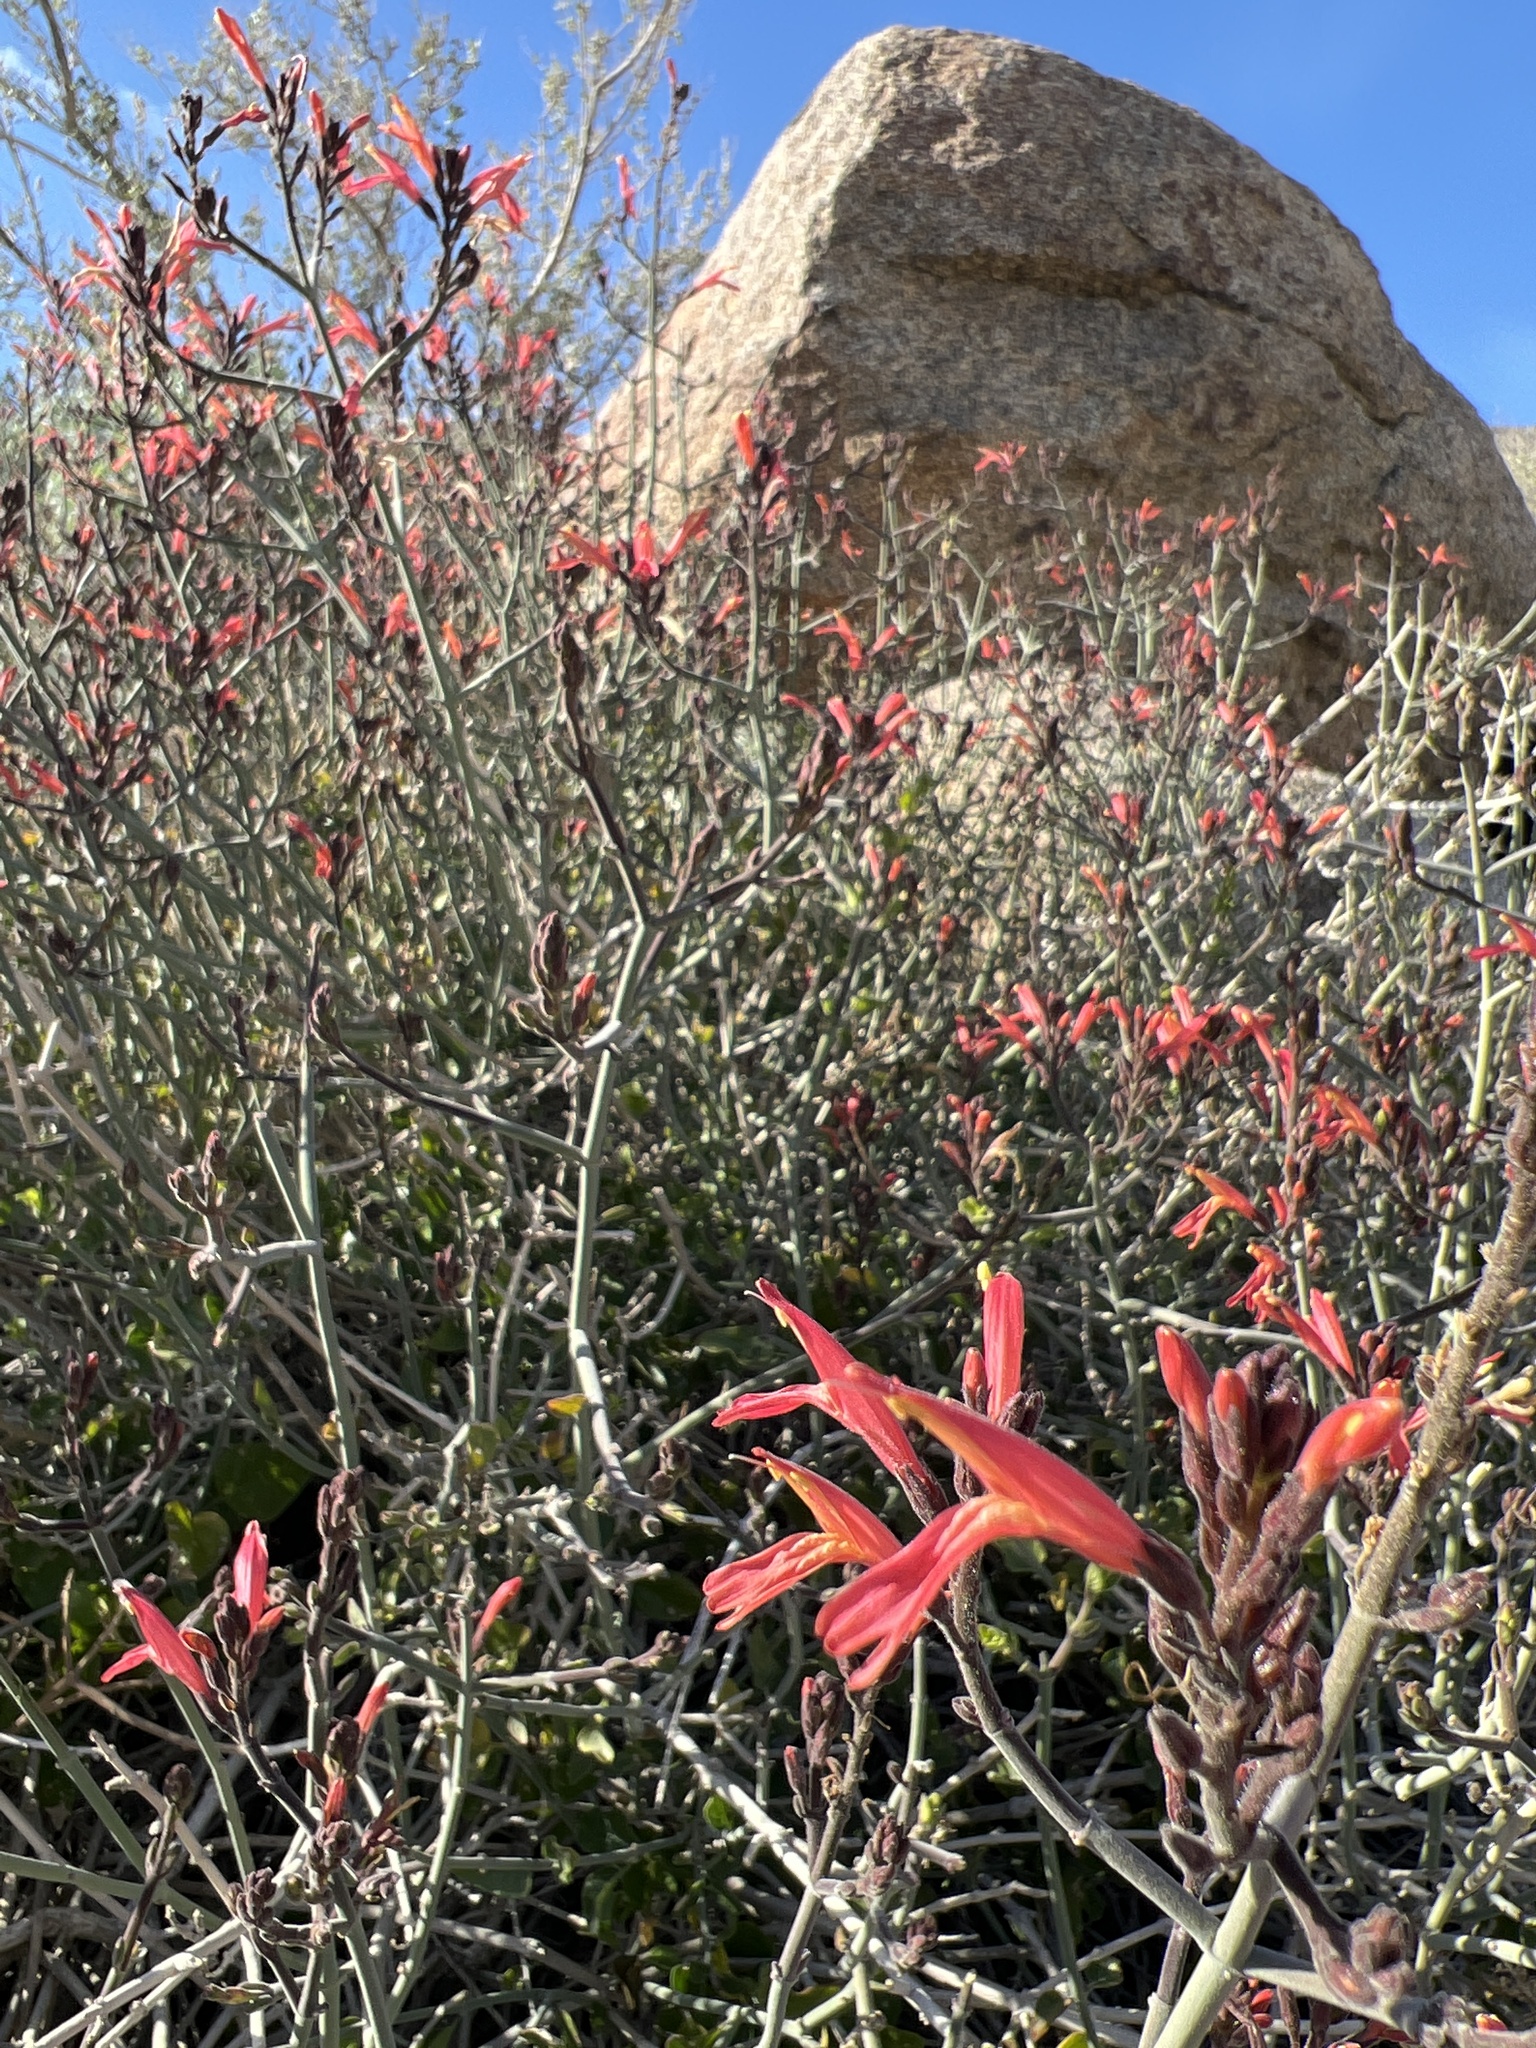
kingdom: Plantae
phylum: Tracheophyta
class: Magnoliopsida
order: Lamiales
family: Acanthaceae
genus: Justicia
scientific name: Justicia californica
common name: Chuparosa-honeysuckle
